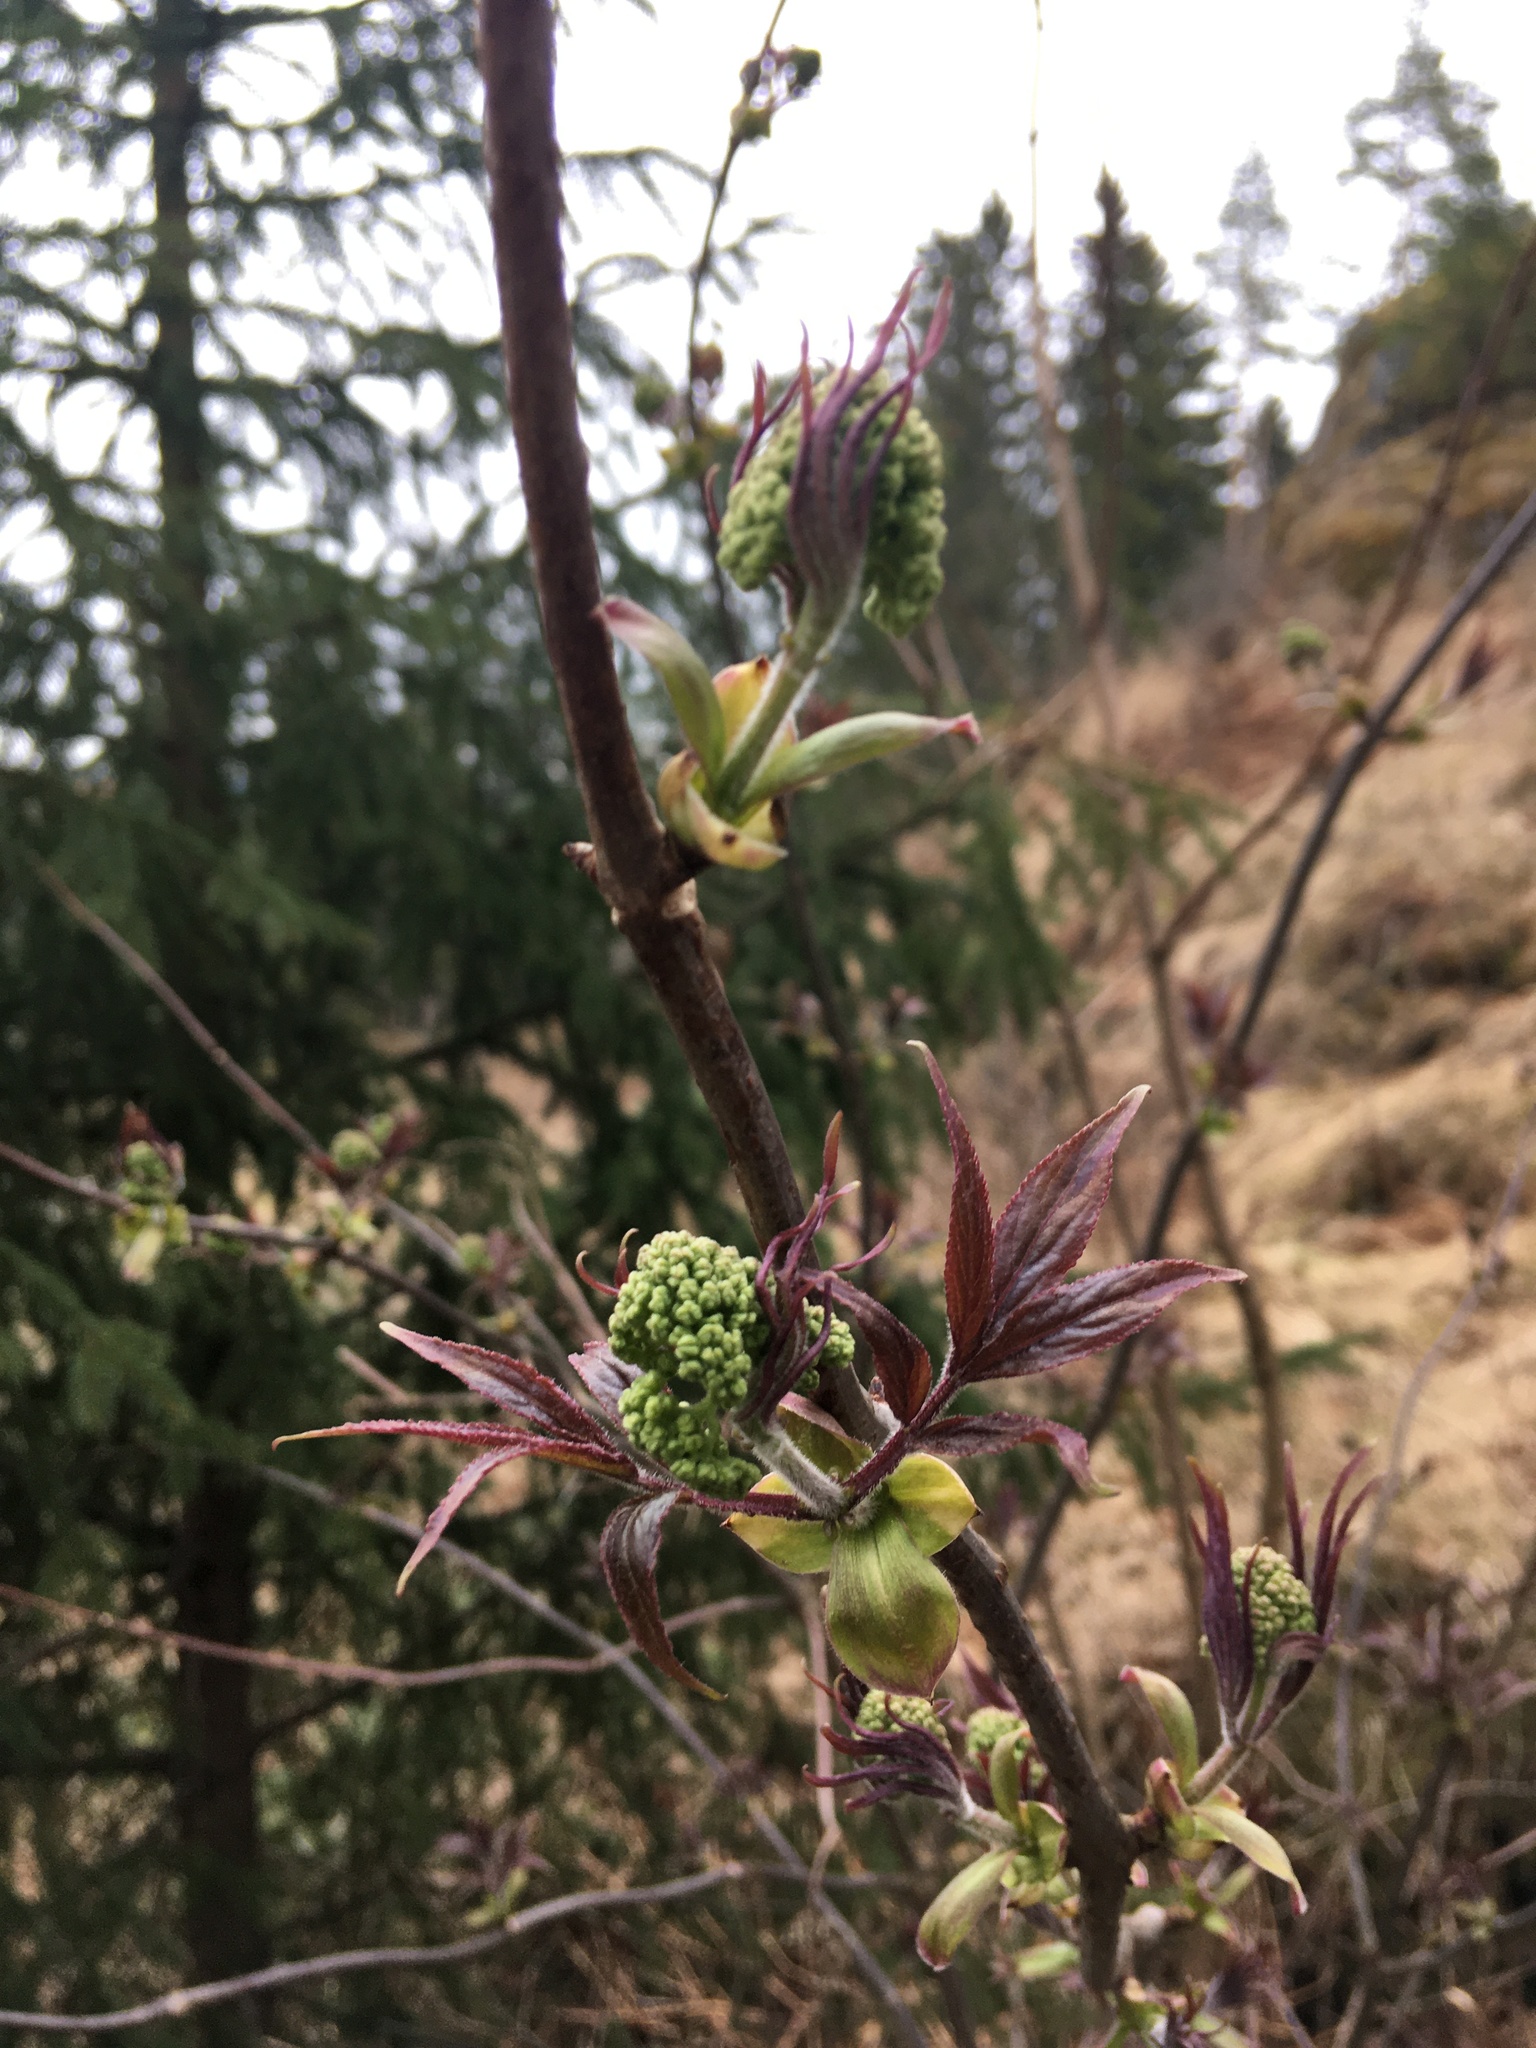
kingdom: Plantae
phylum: Tracheophyta
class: Magnoliopsida
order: Dipsacales
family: Viburnaceae
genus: Sambucus
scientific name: Sambucus racemosa
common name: Red-berried elder
